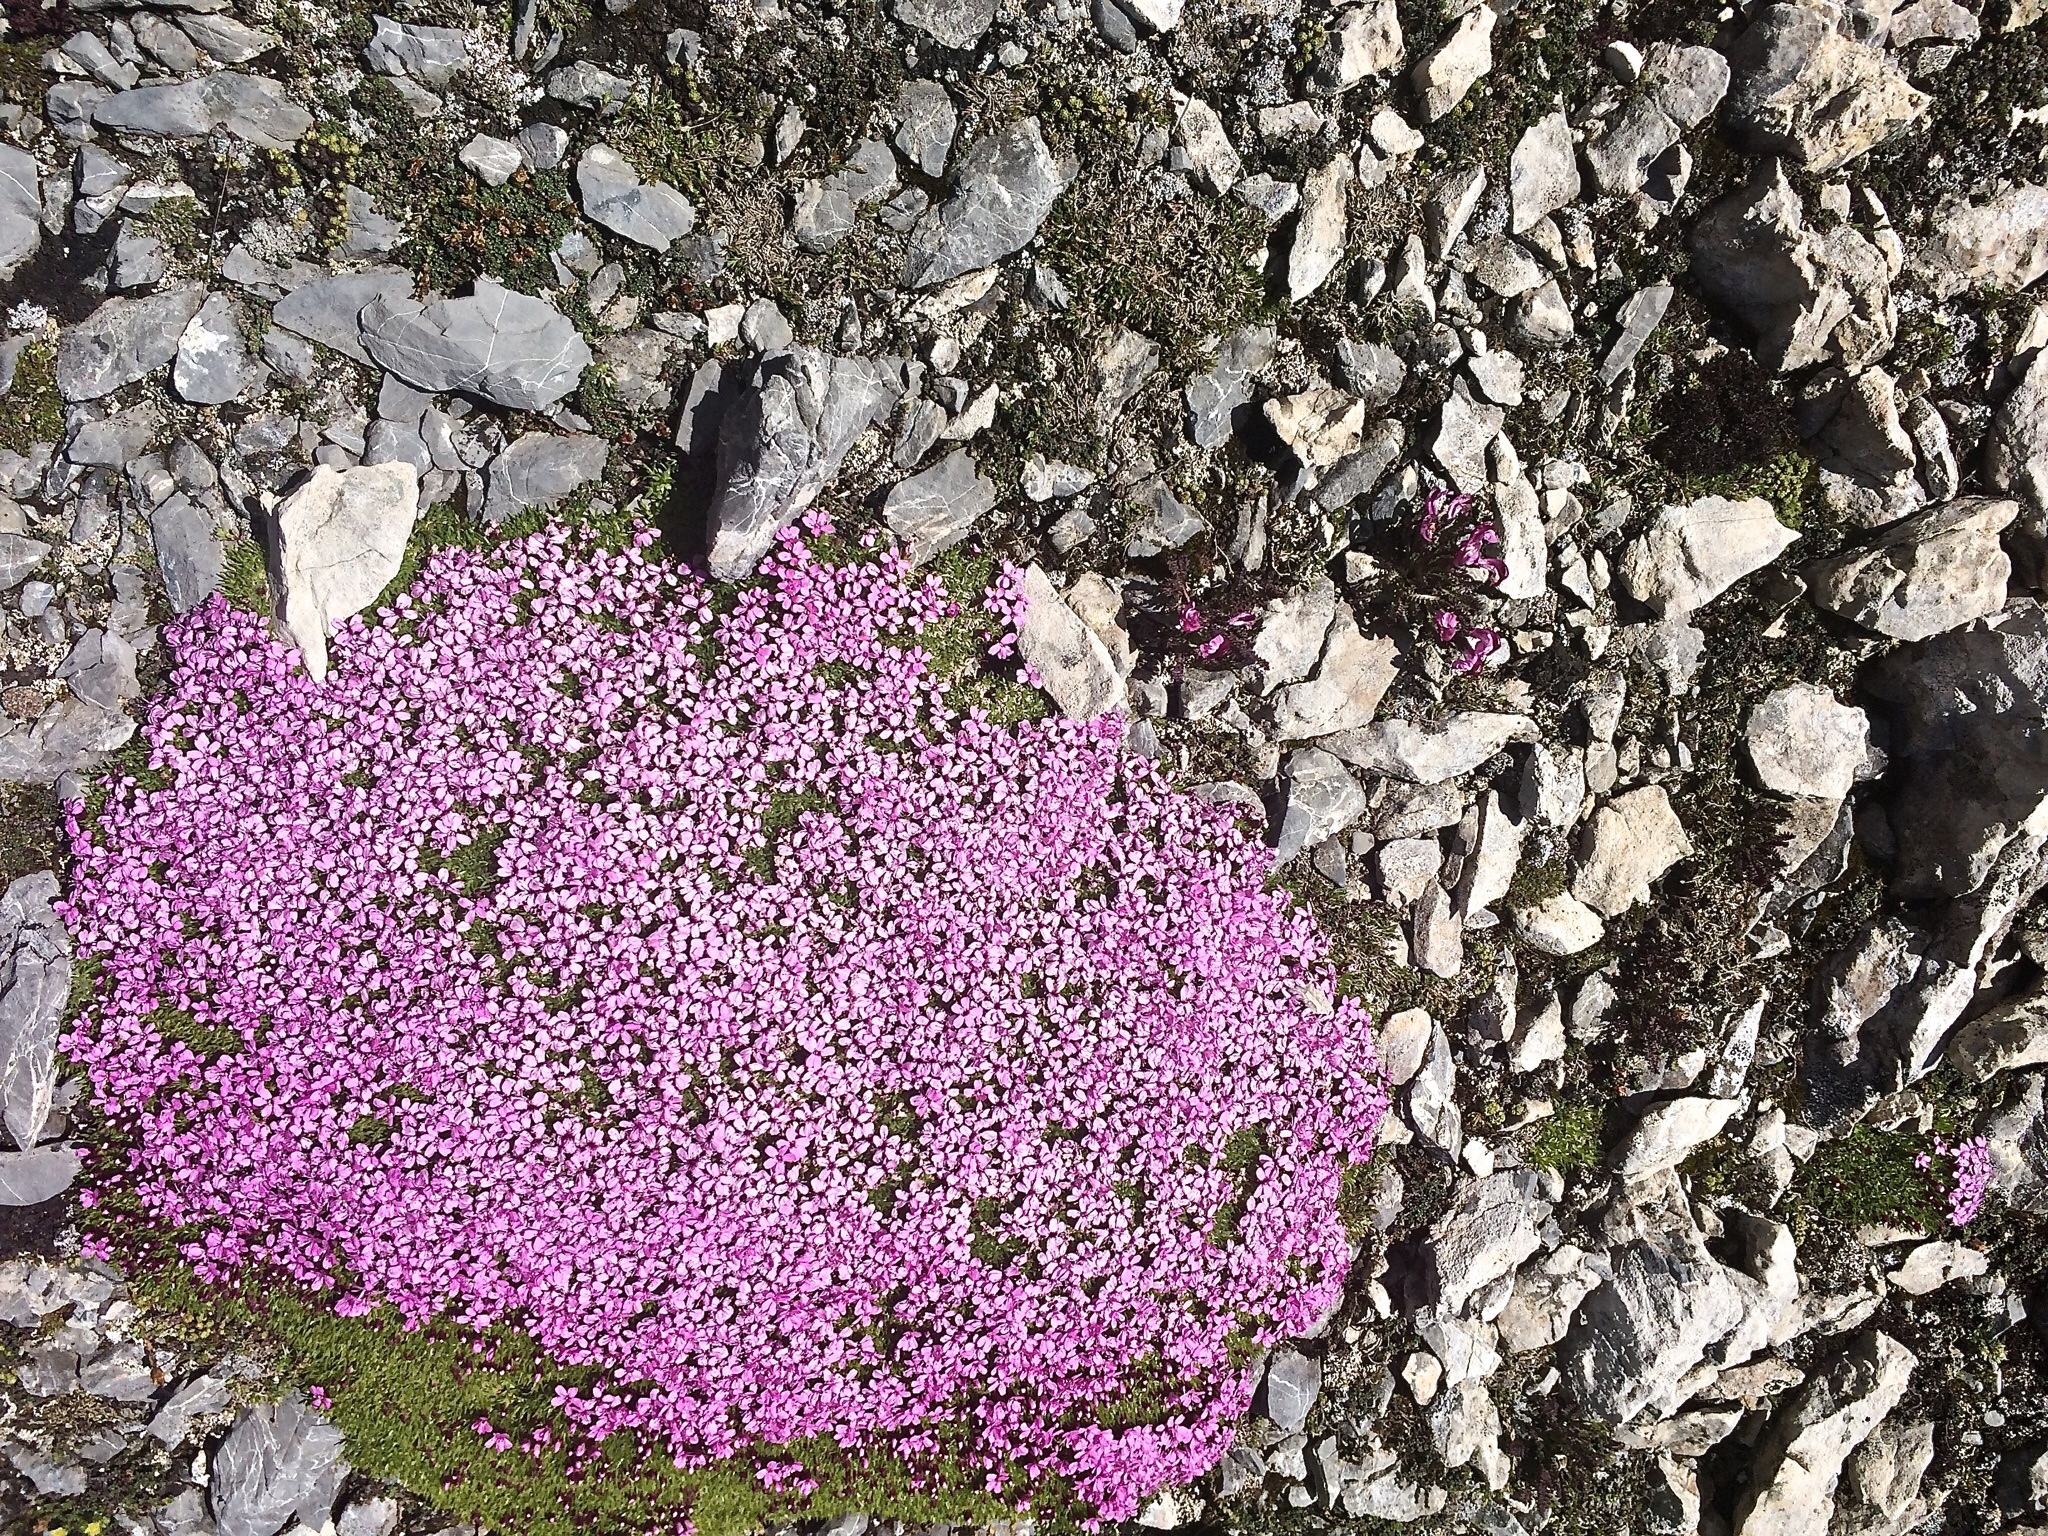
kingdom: Plantae
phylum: Tracheophyta
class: Magnoliopsida
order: Caryophyllales
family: Caryophyllaceae
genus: Silene
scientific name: Silene acaulis
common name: Moss campion
